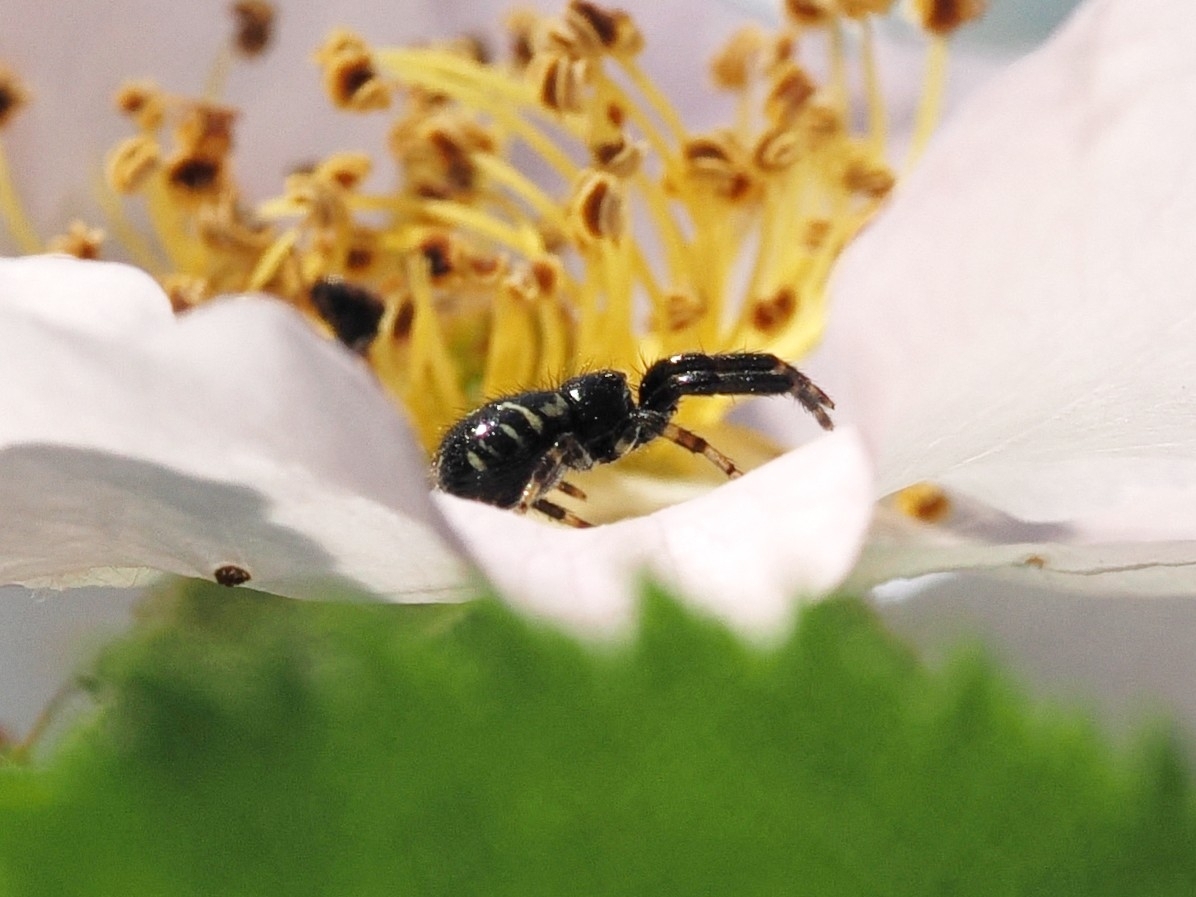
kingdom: Animalia
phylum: Arthropoda
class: Arachnida
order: Araneae
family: Thomisidae
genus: Synema
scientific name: Synema globosum
